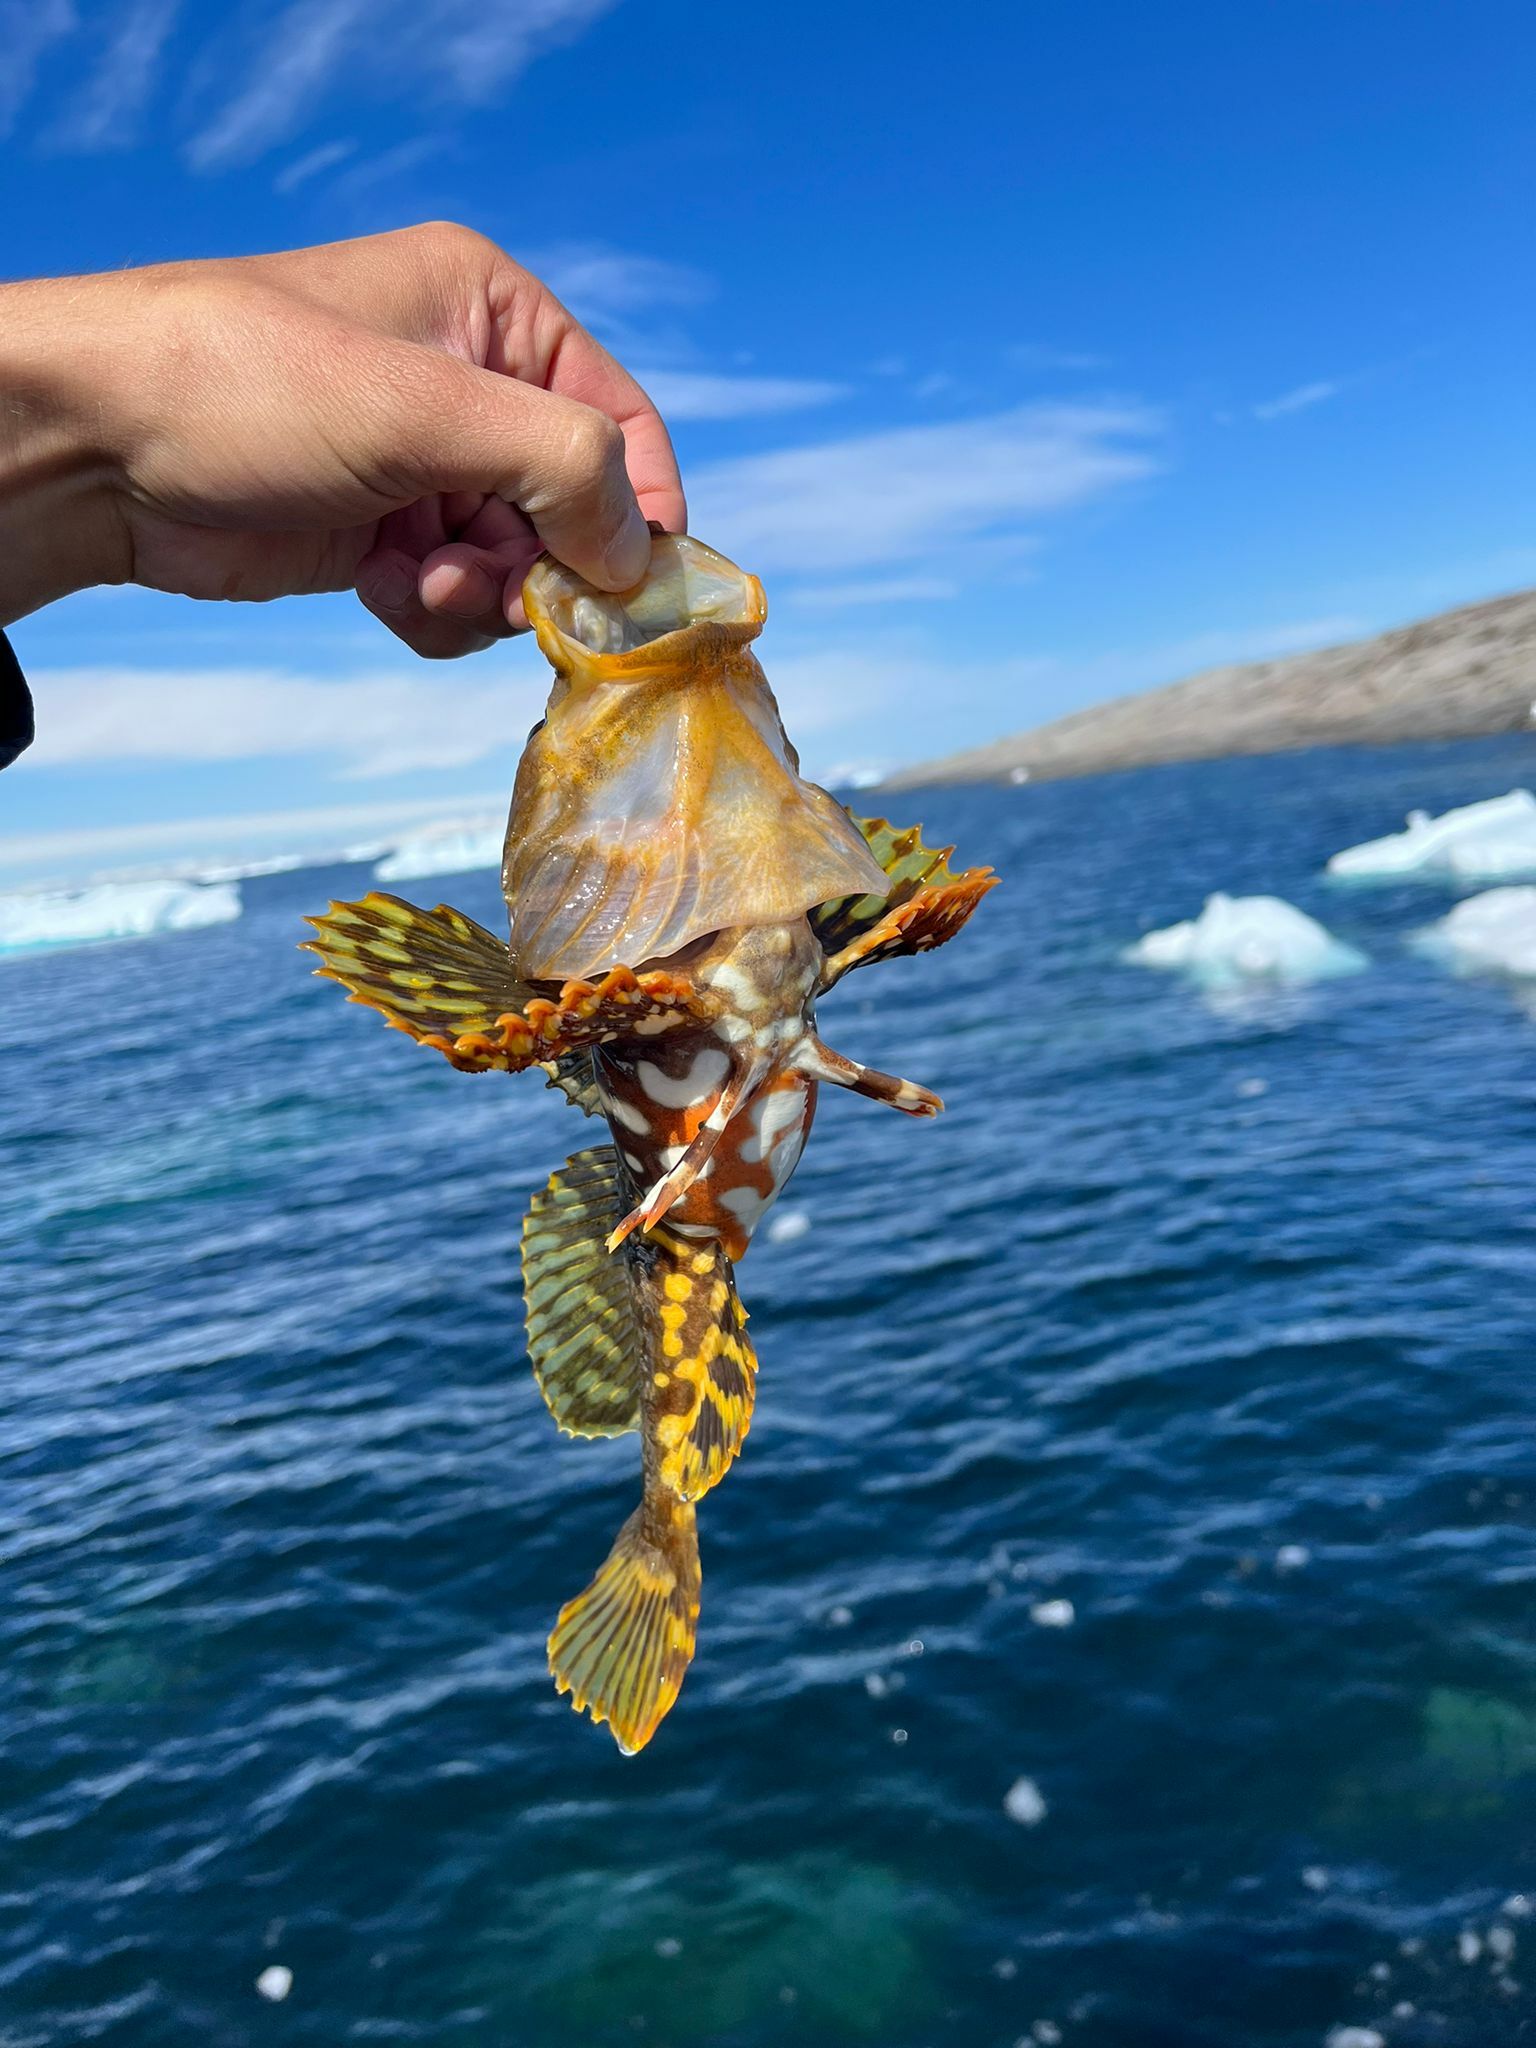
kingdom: Animalia
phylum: Chordata
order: Scorpaeniformes
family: Cottidae
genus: Myoxocephalus
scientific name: Myoxocephalus scorpius
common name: Shorthorn sculpin
